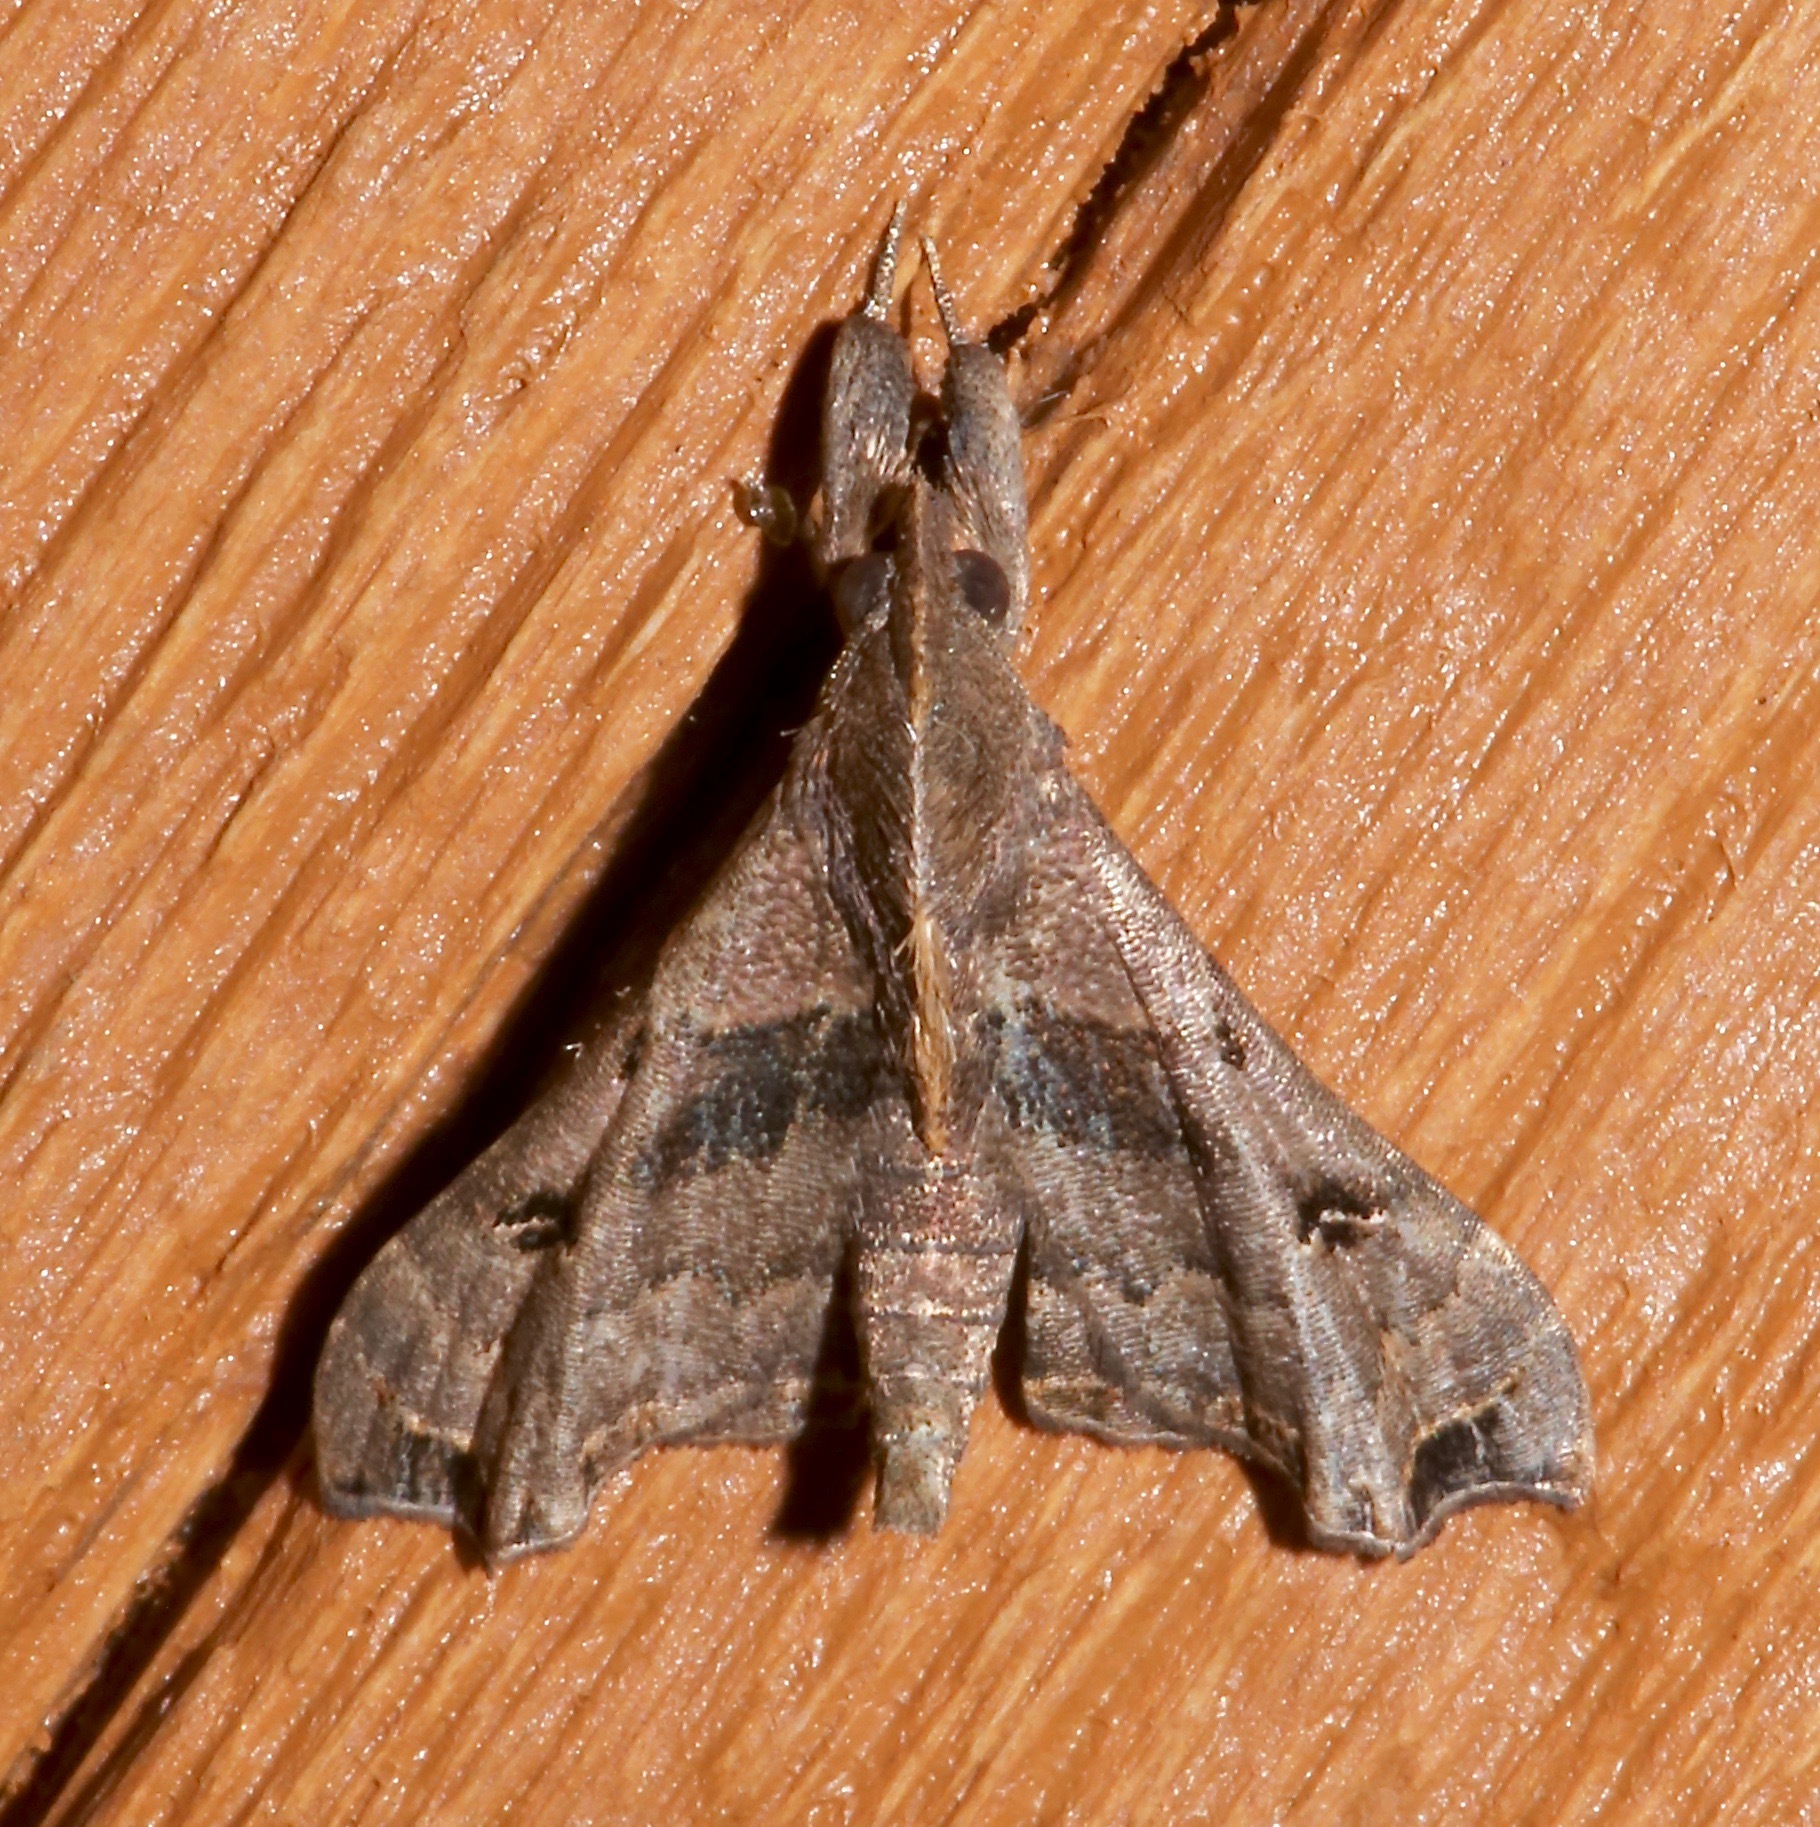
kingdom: Animalia
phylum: Arthropoda
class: Insecta
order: Lepidoptera
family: Erebidae
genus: Palthis
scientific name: Palthis asopialis
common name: Faint-spotted palthis moth
